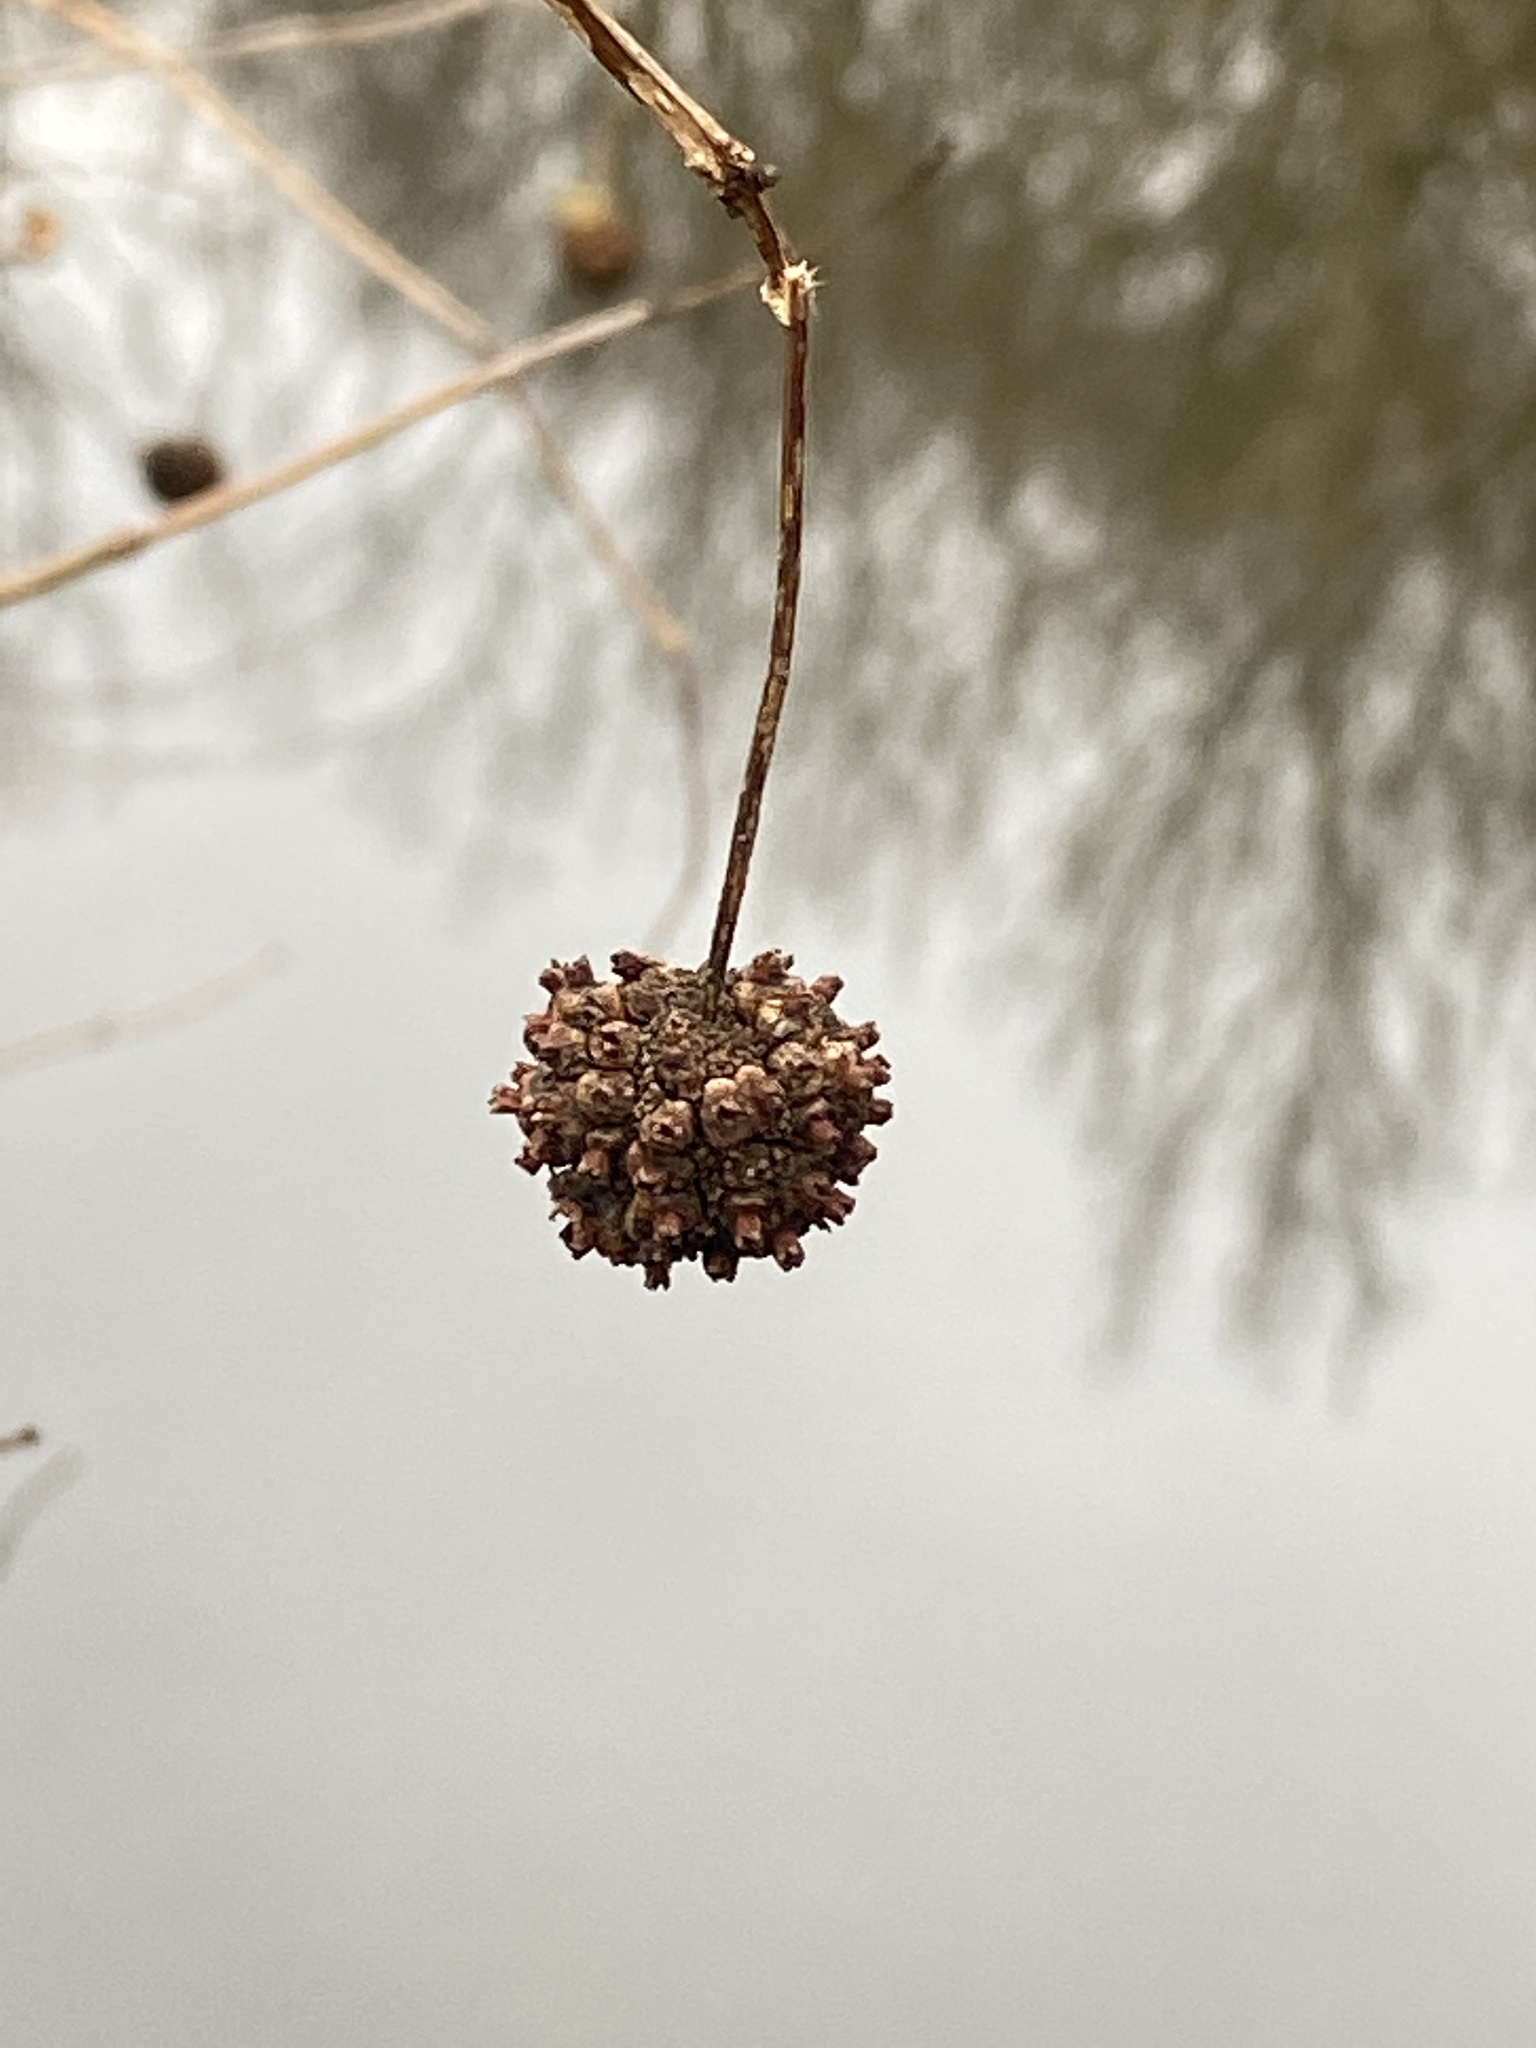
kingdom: Plantae
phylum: Tracheophyta
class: Magnoliopsida
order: Gentianales
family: Rubiaceae
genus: Cephalanthus
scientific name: Cephalanthus occidentalis
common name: Button-willow
